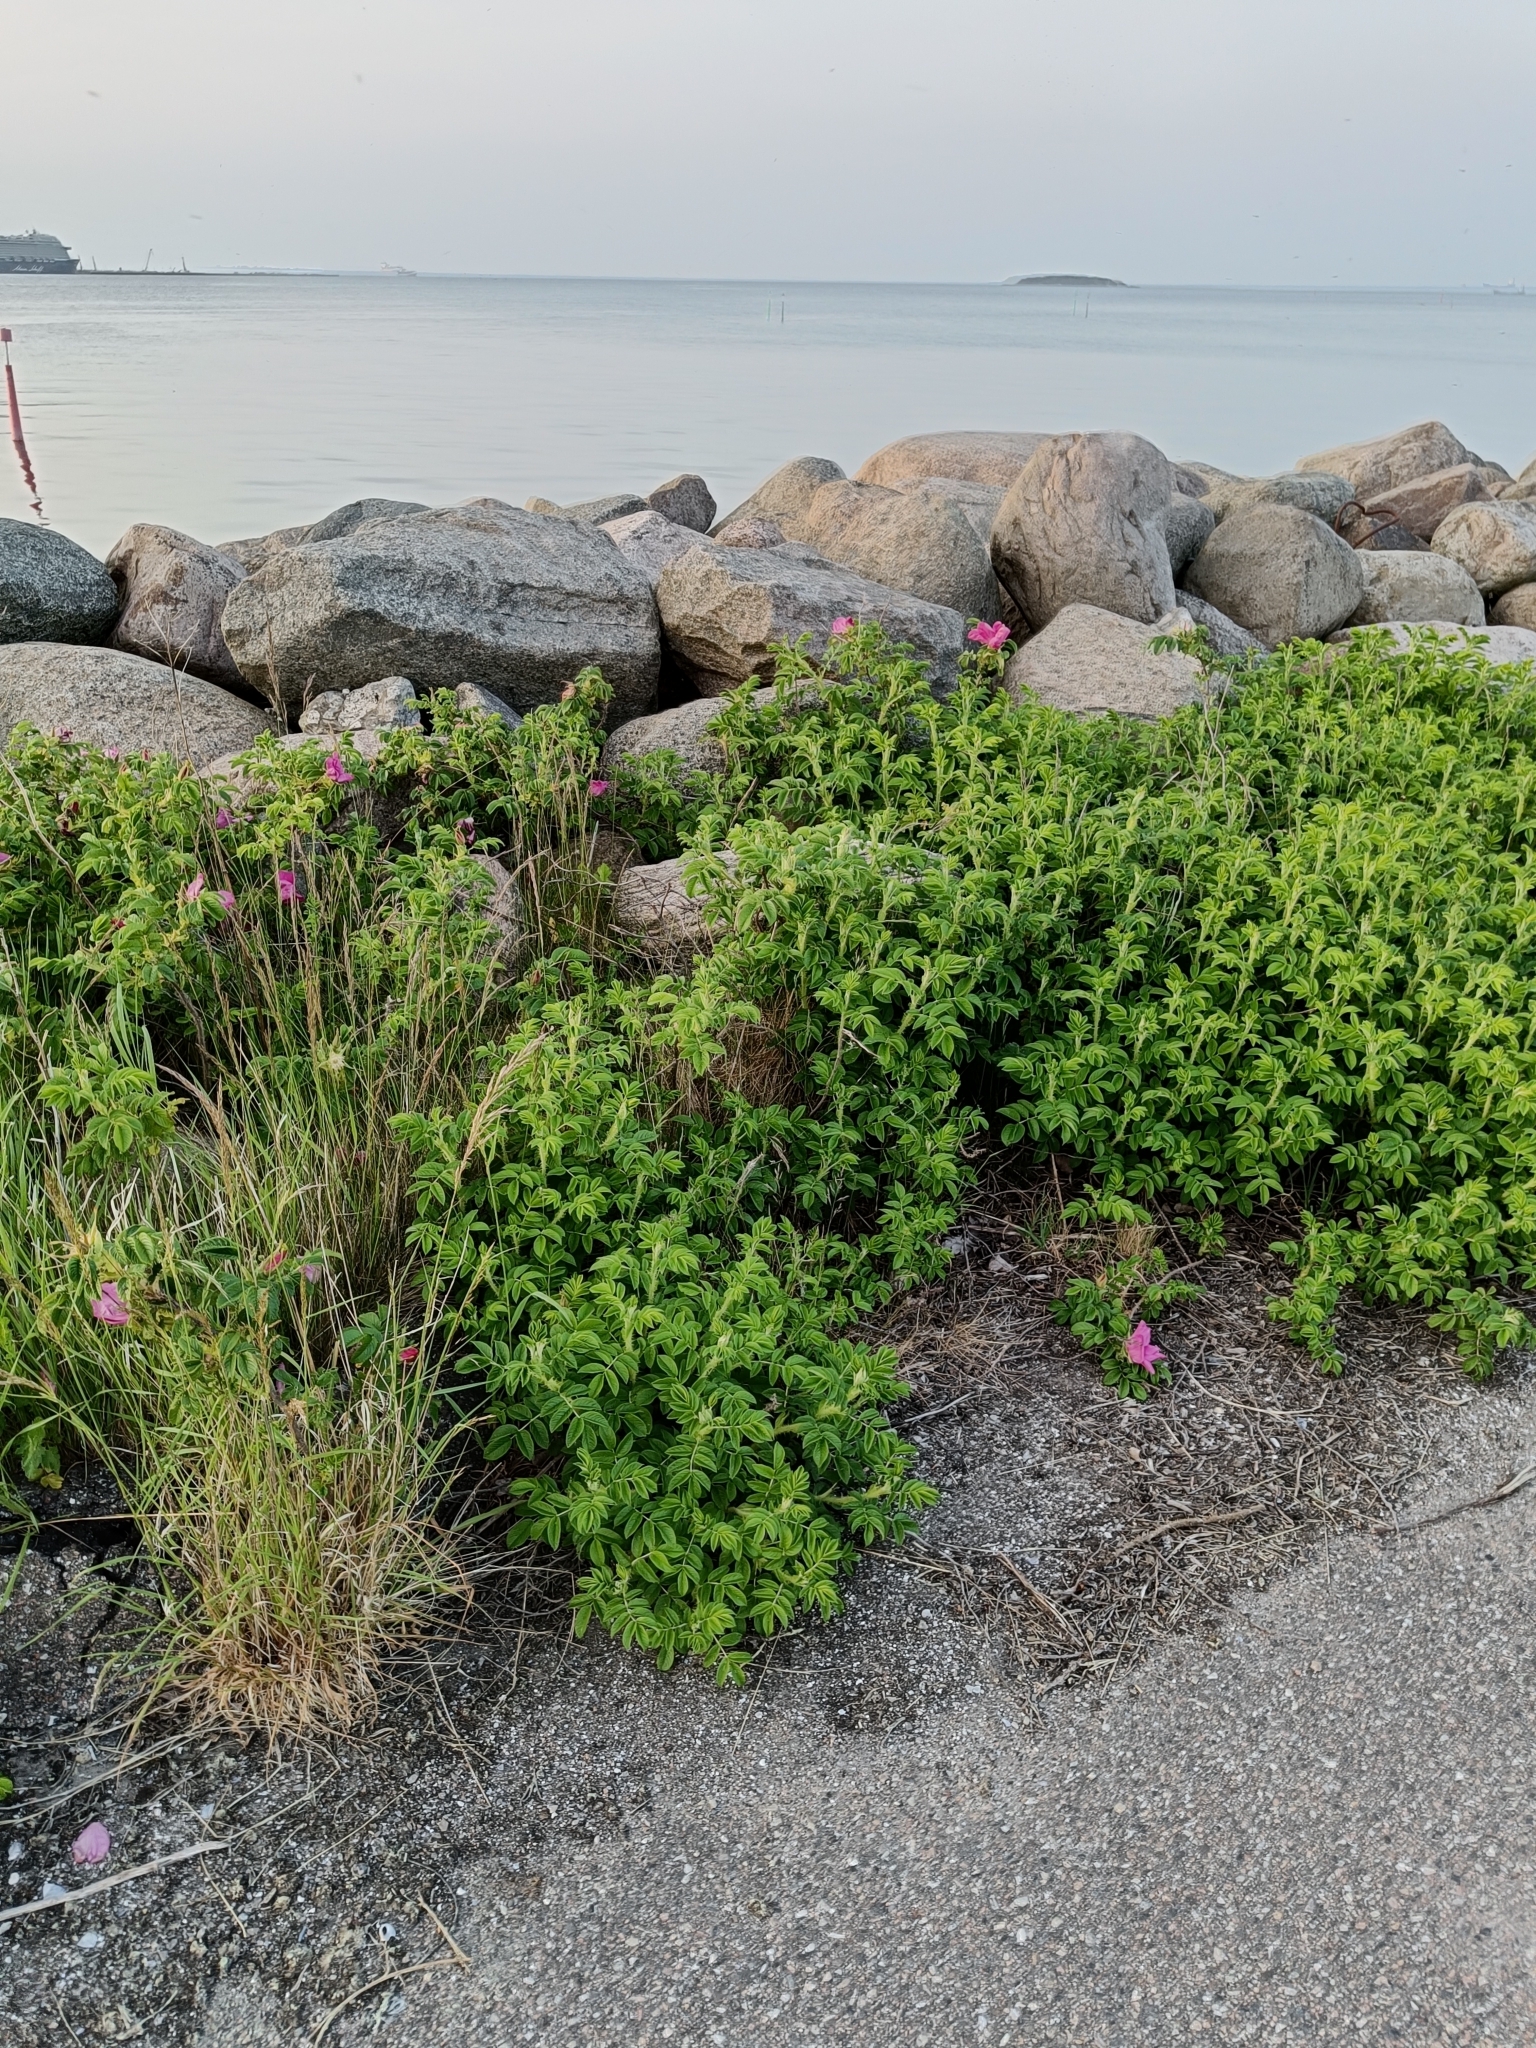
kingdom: Plantae
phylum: Tracheophyta
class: Magnoliopsida
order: Rosales
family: Rosaceae
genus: Rosa
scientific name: Rosa rugosa
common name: Japanese rose
